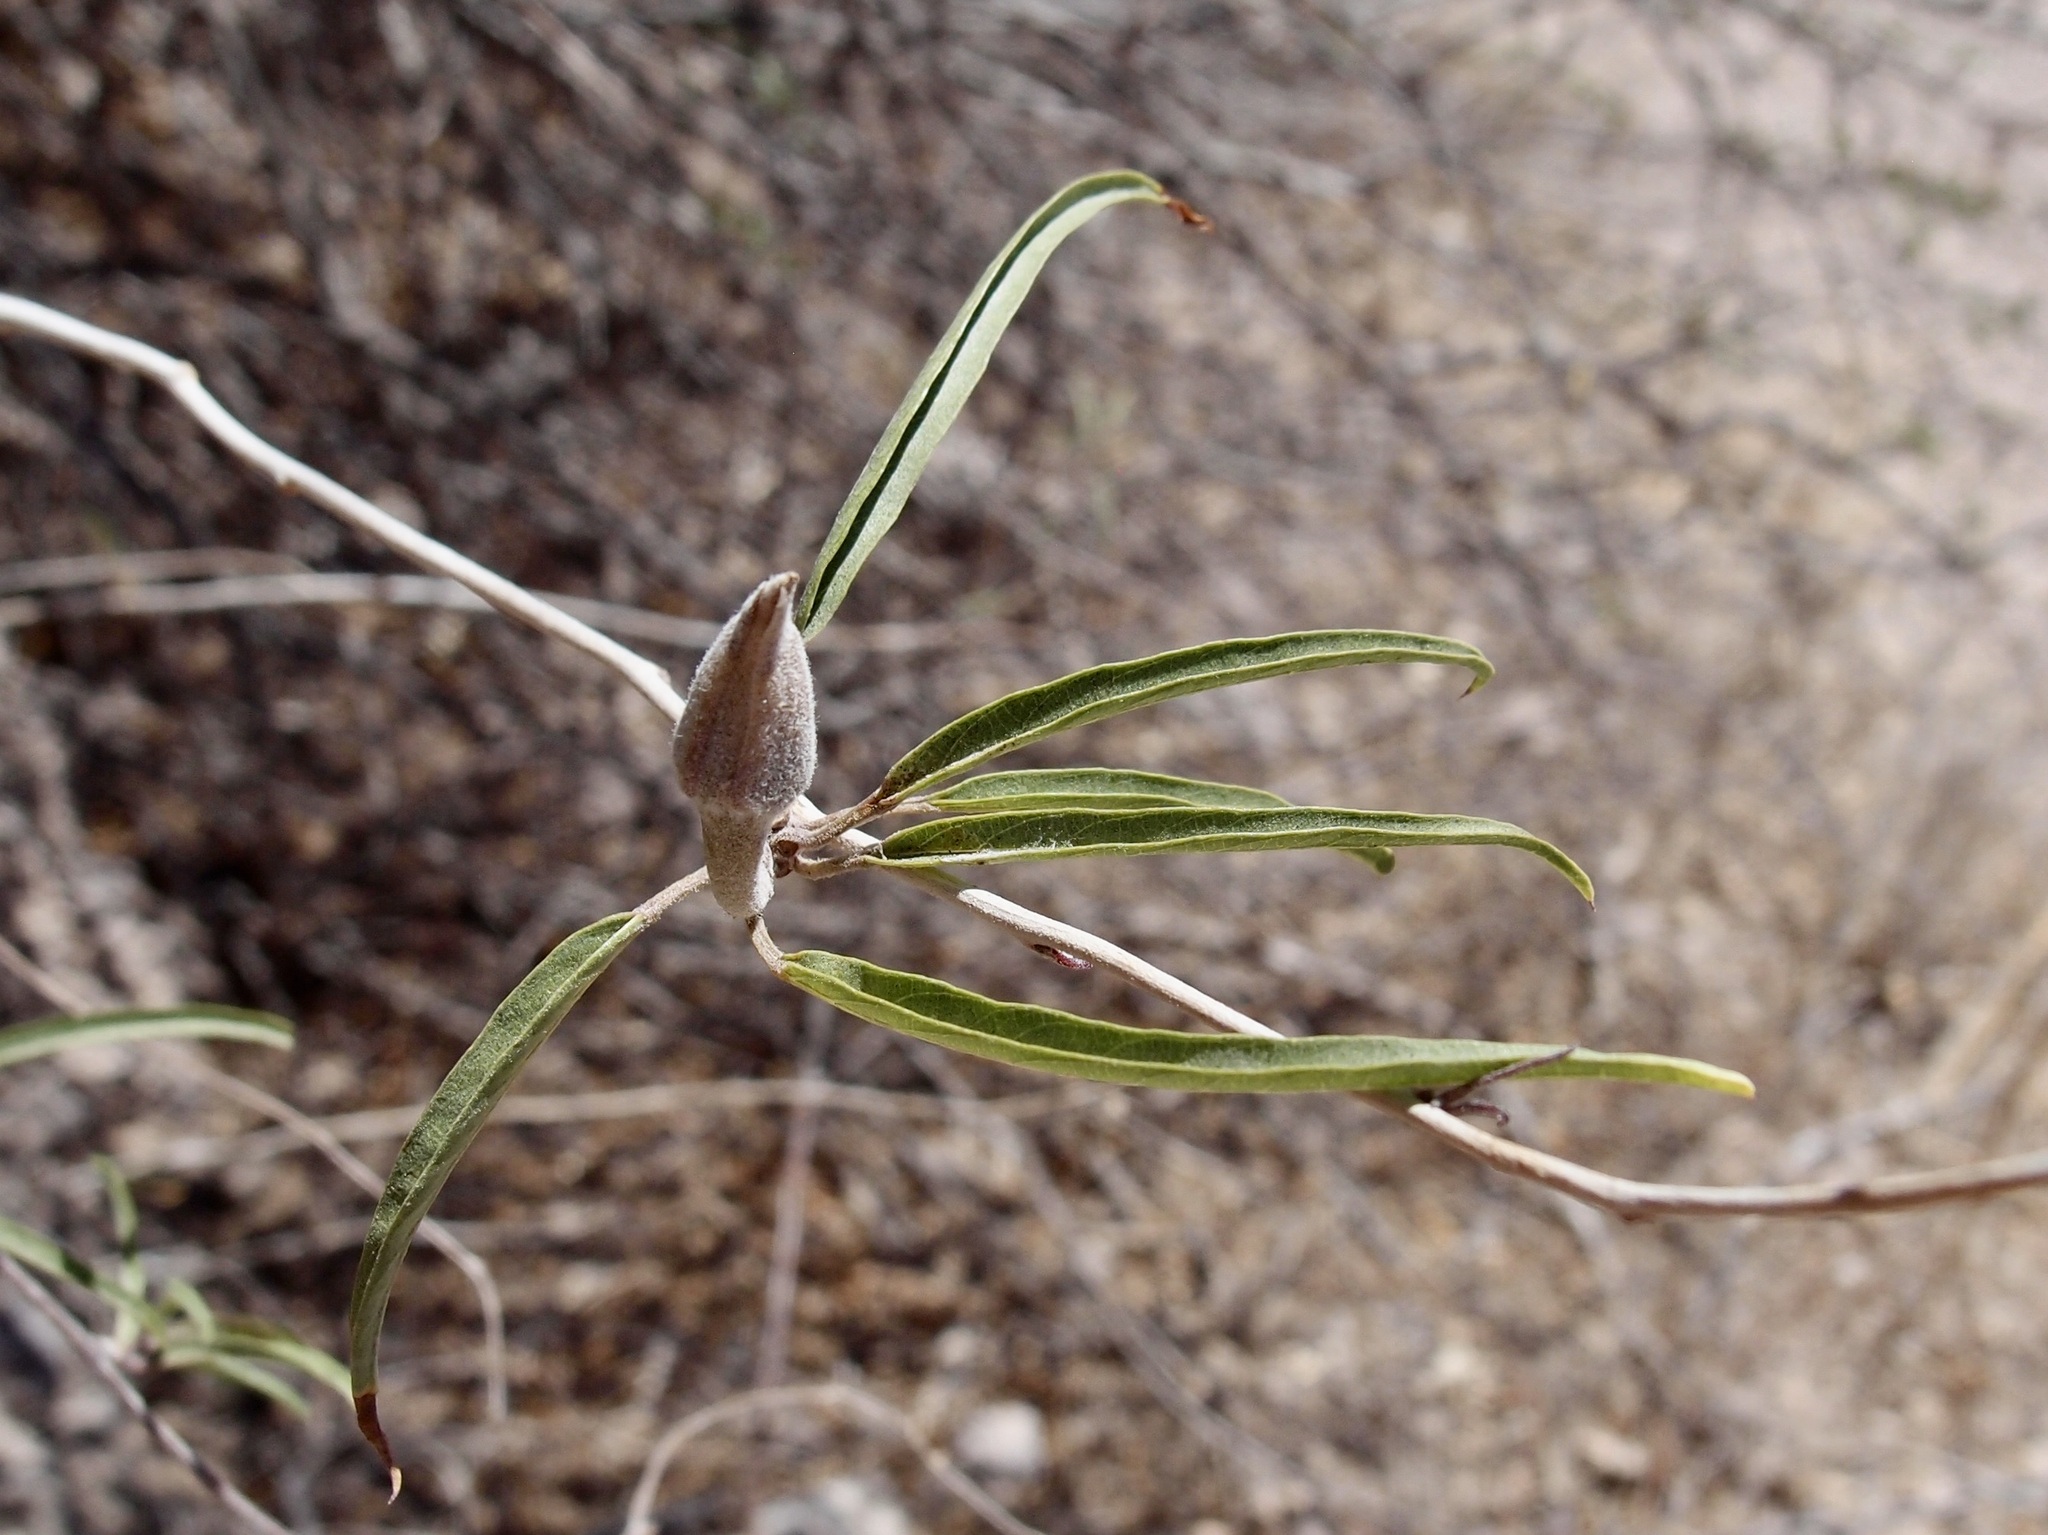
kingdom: Plantae
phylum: Tracheophyta
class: Magnoliopsida
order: Solanales
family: Convolvulaceae
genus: Ipomoea
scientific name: Ipomoea seaania
